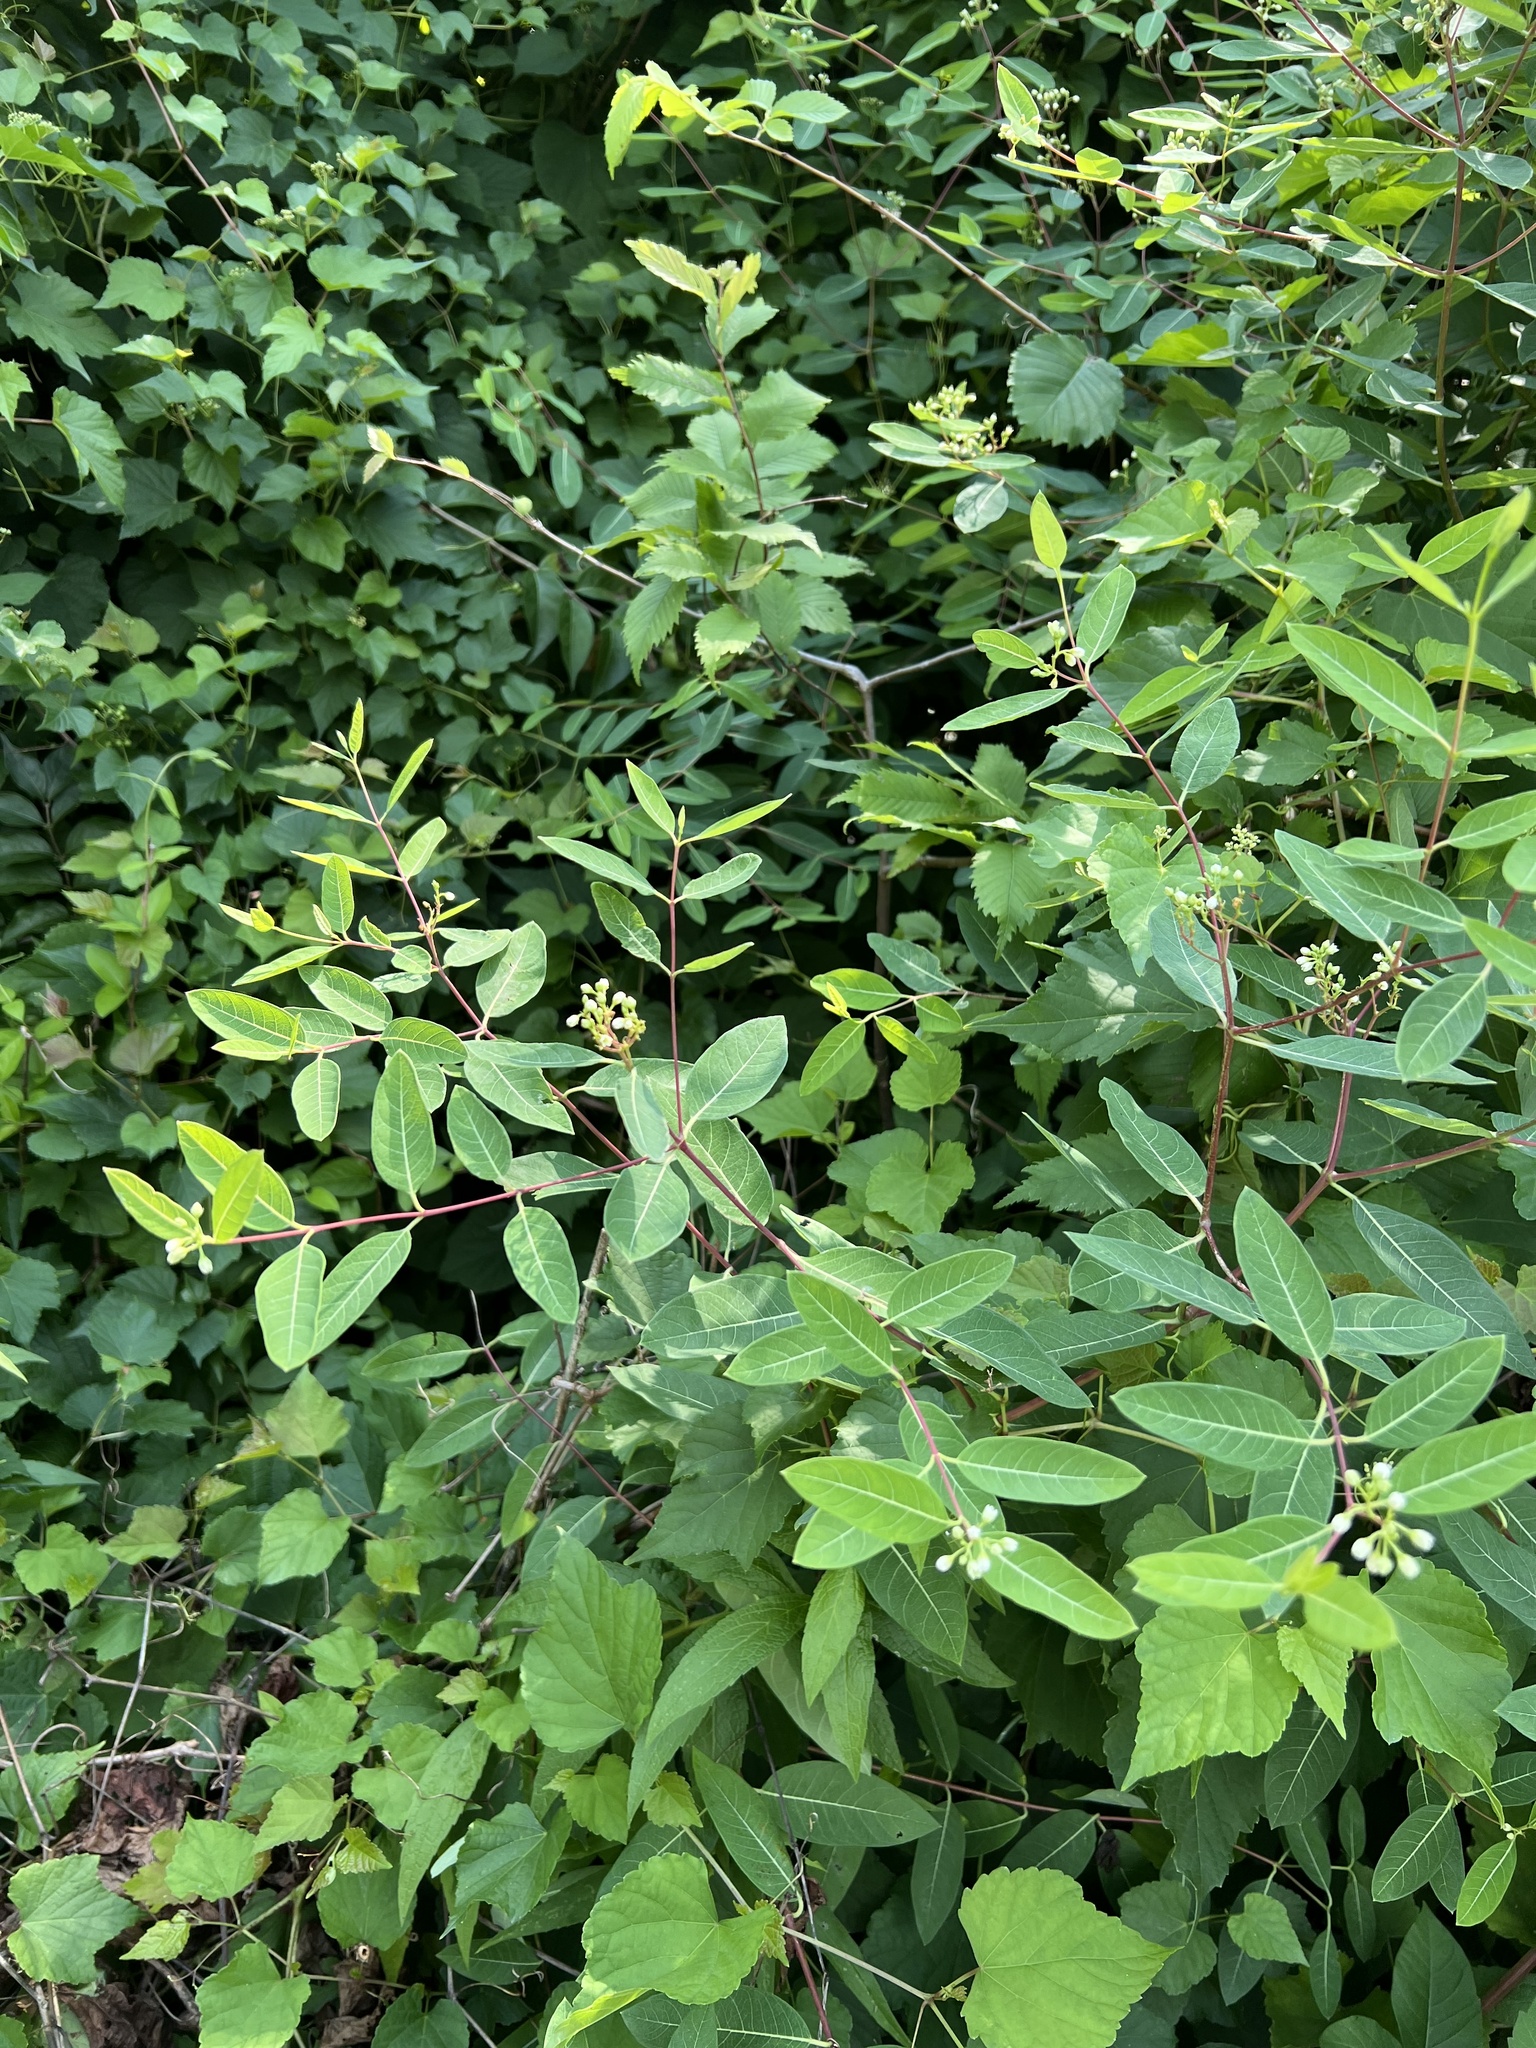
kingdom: Plantae
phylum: Tracheophyta
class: Magnoliopsida
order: Gentianales
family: Apocynaceae
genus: Apocynum
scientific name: Apocynum cannabinum
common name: Hemp dogbane
